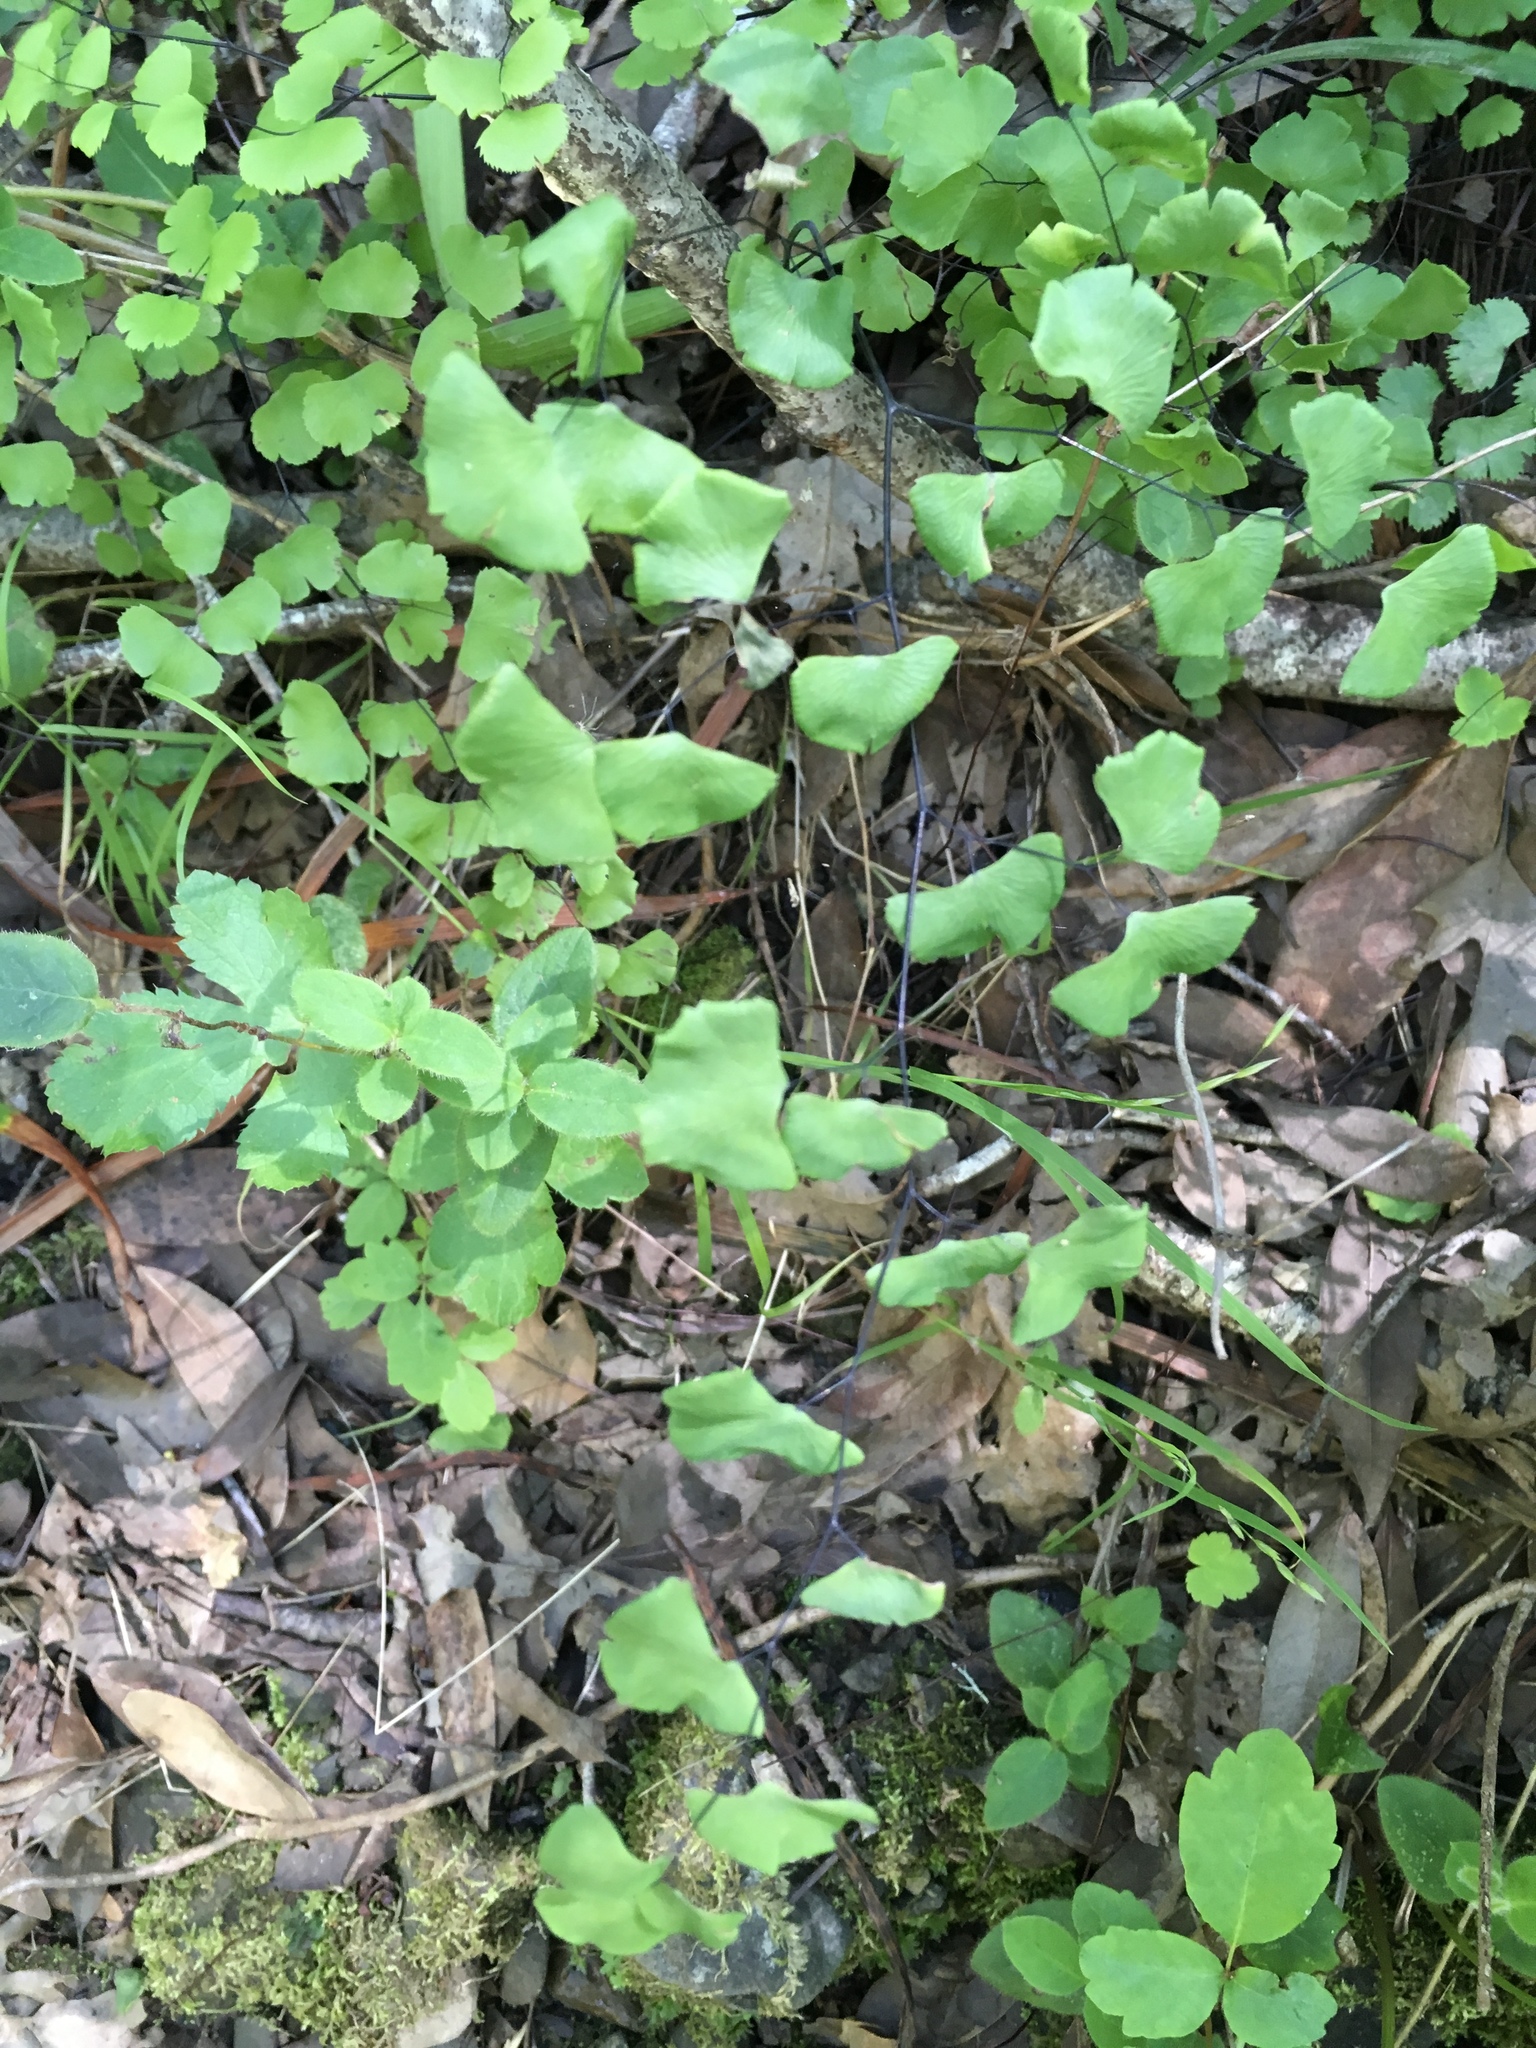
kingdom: Plantae
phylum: Tracheophyta
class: Polypodiopsida
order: Polypodiales
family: Pteridaceae
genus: Adiantum
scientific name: Adiantum jordanii
